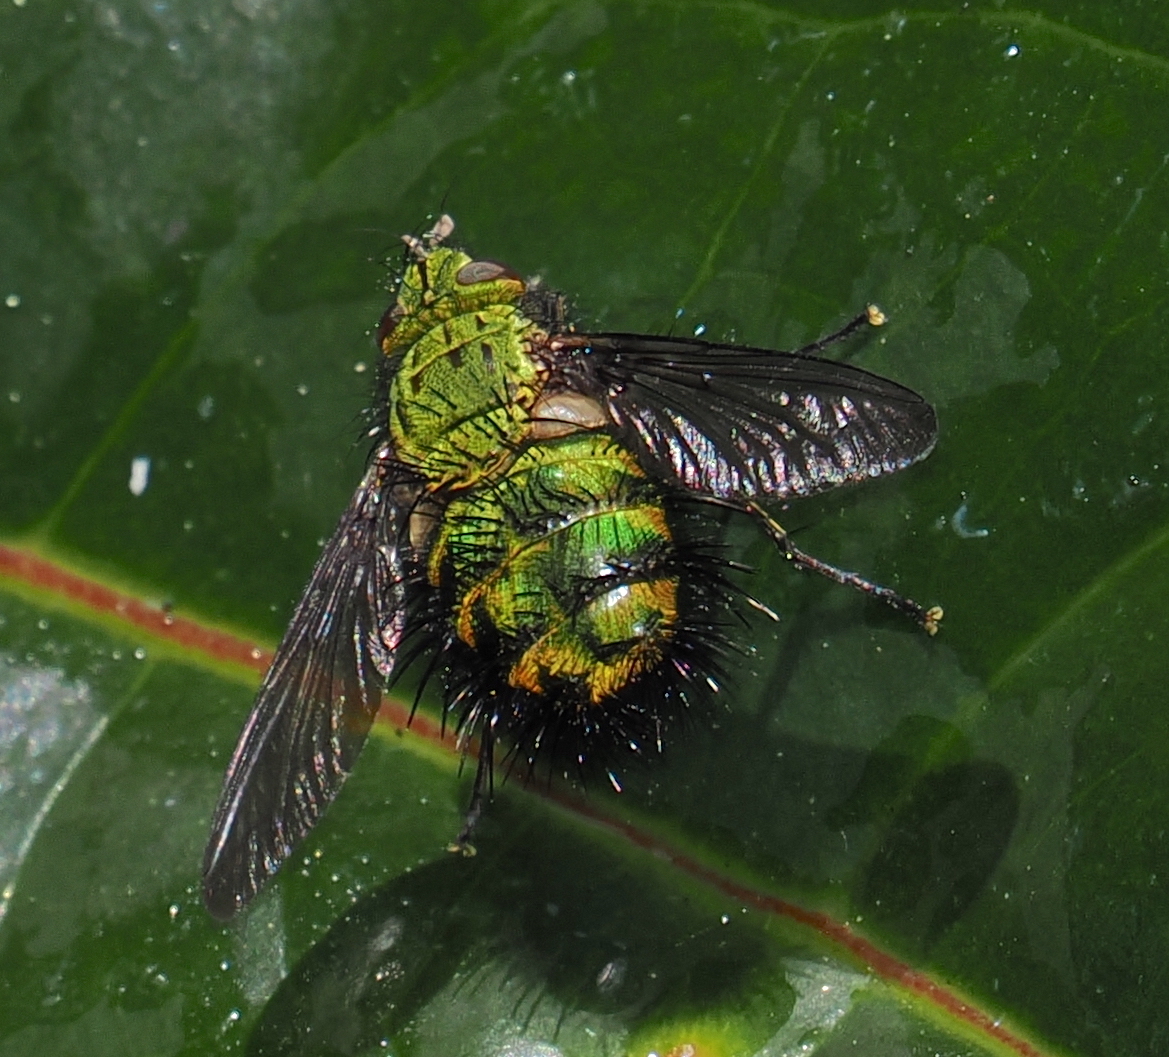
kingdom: Animalia
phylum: Arthropoda
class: Insecta
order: Diptera
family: Tachinidae
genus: Vertepalpus
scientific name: Vertepalpus verdans
